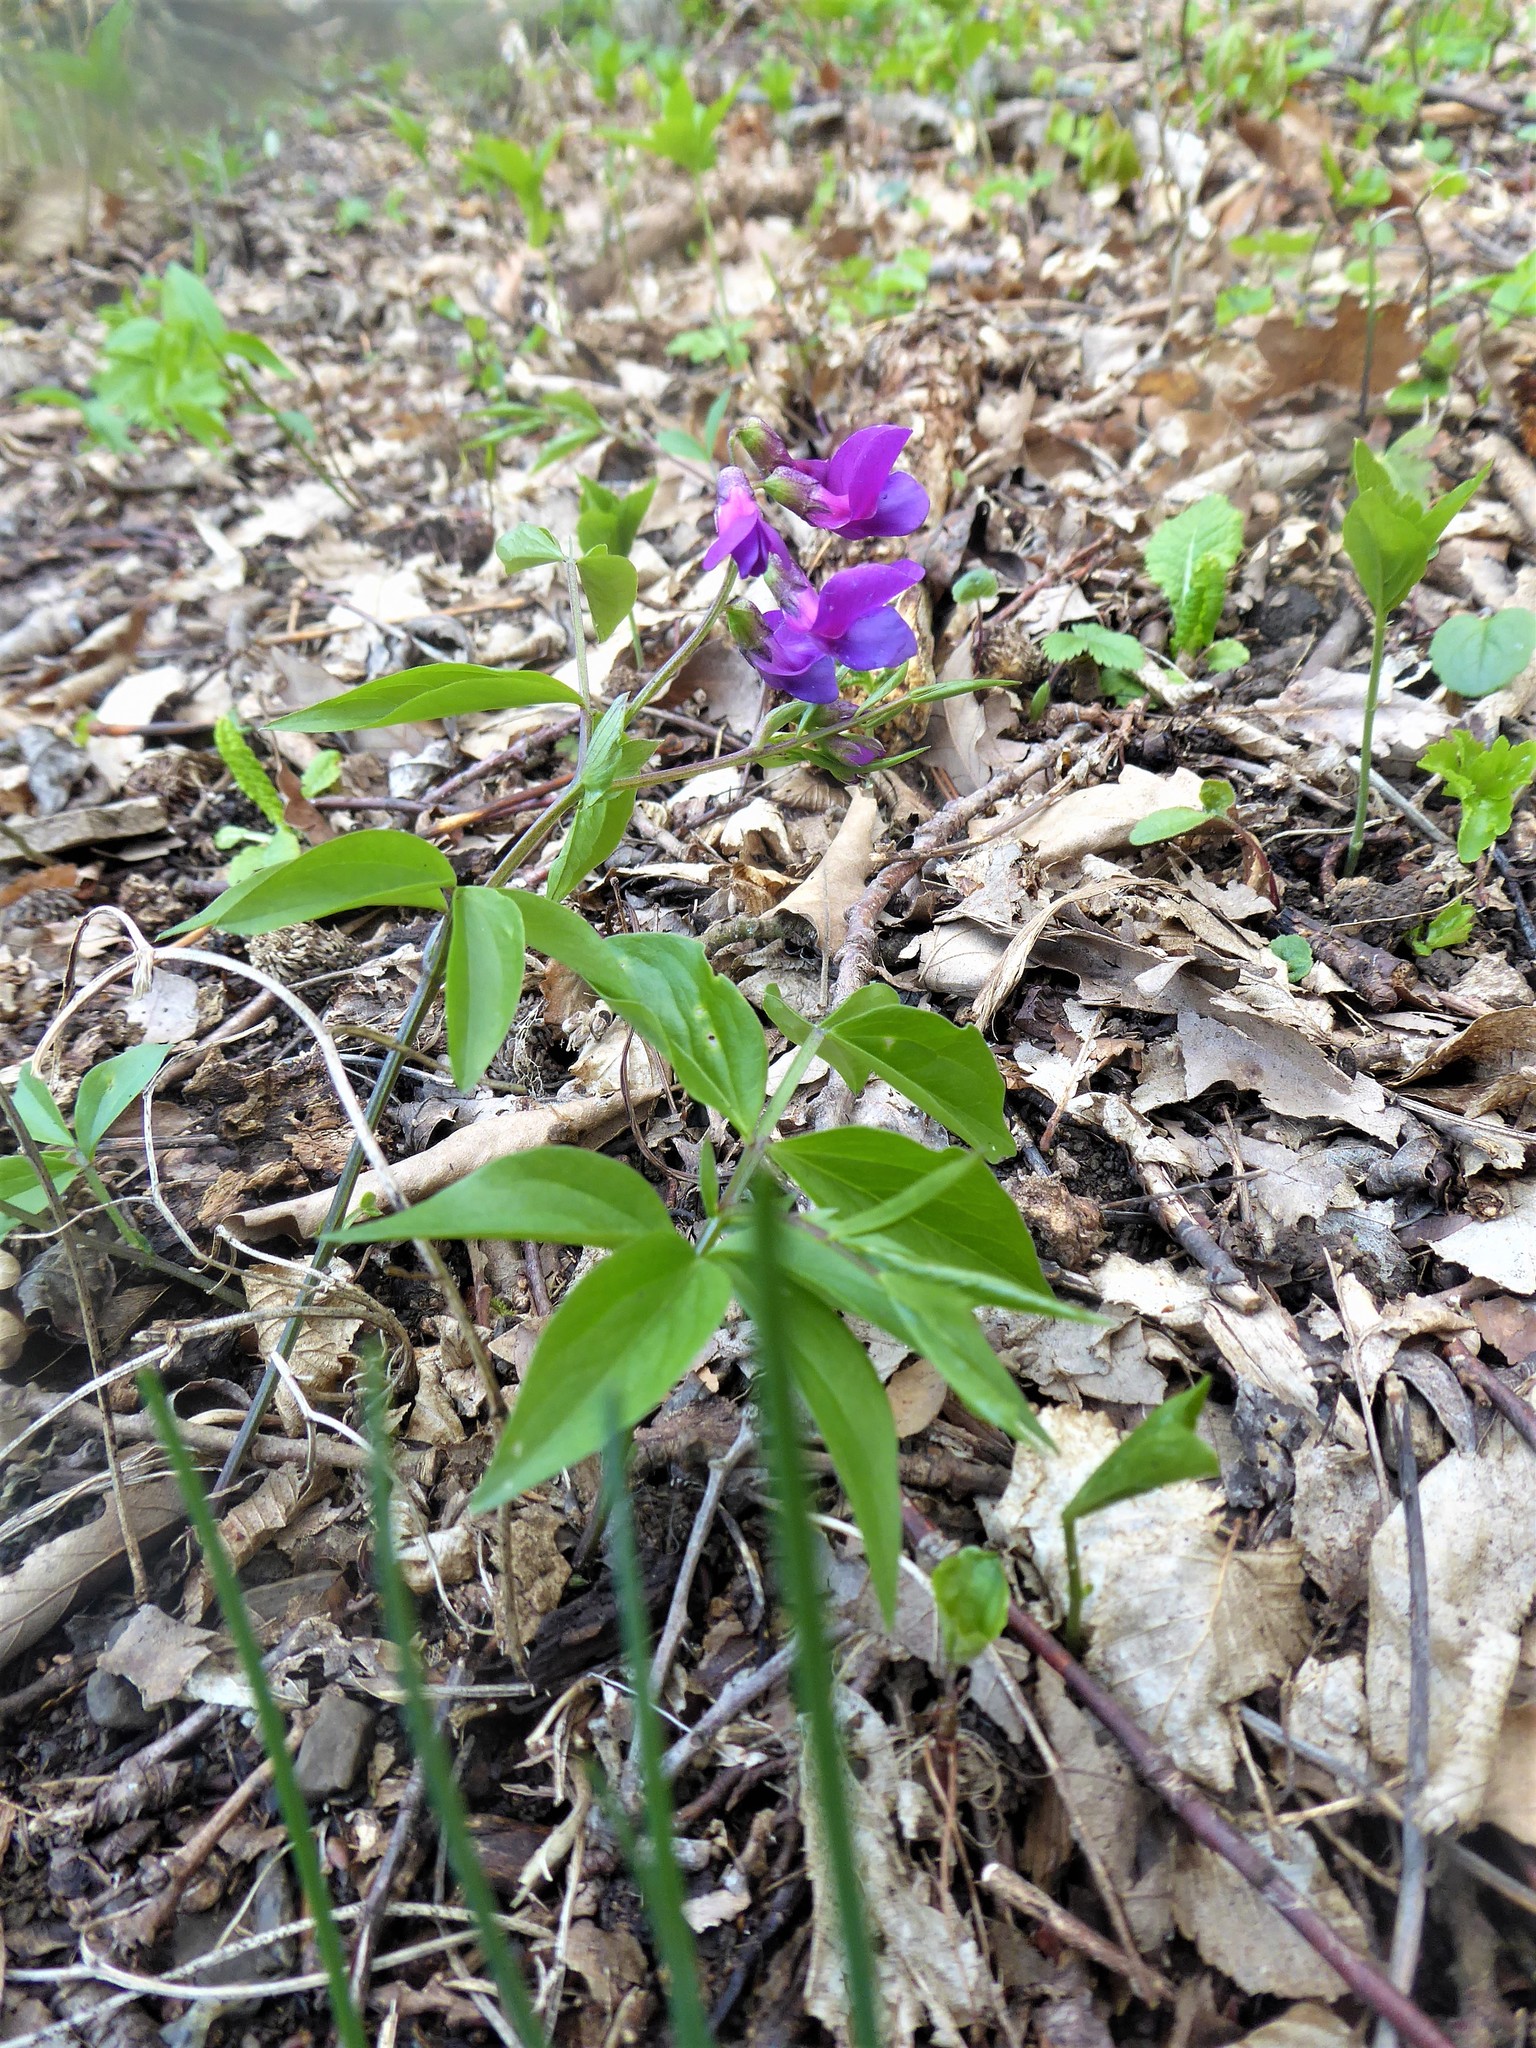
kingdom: Plantae
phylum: Tracheophyta
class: Magnoliopsida
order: Fabales
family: Fabaceae
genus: Lathyrus
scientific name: Lathyrus vernus
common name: Spring pea
